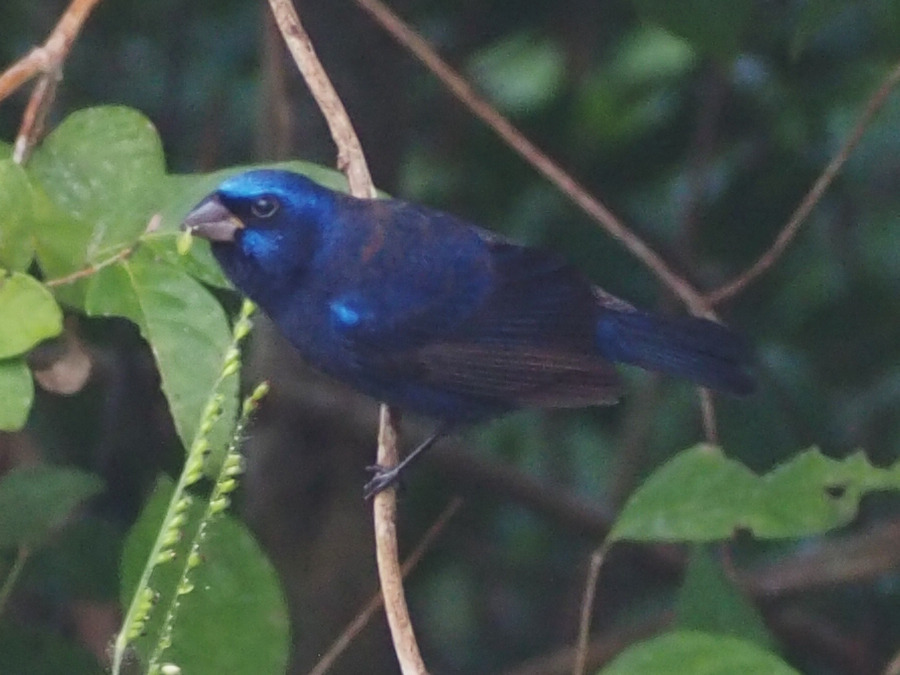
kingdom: Animalia
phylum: Chordata
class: Aves
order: Passeriformes
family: Cardinalidae
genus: Cyanocompsa
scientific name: Cyanocompsa parellina
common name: Blue bunting
